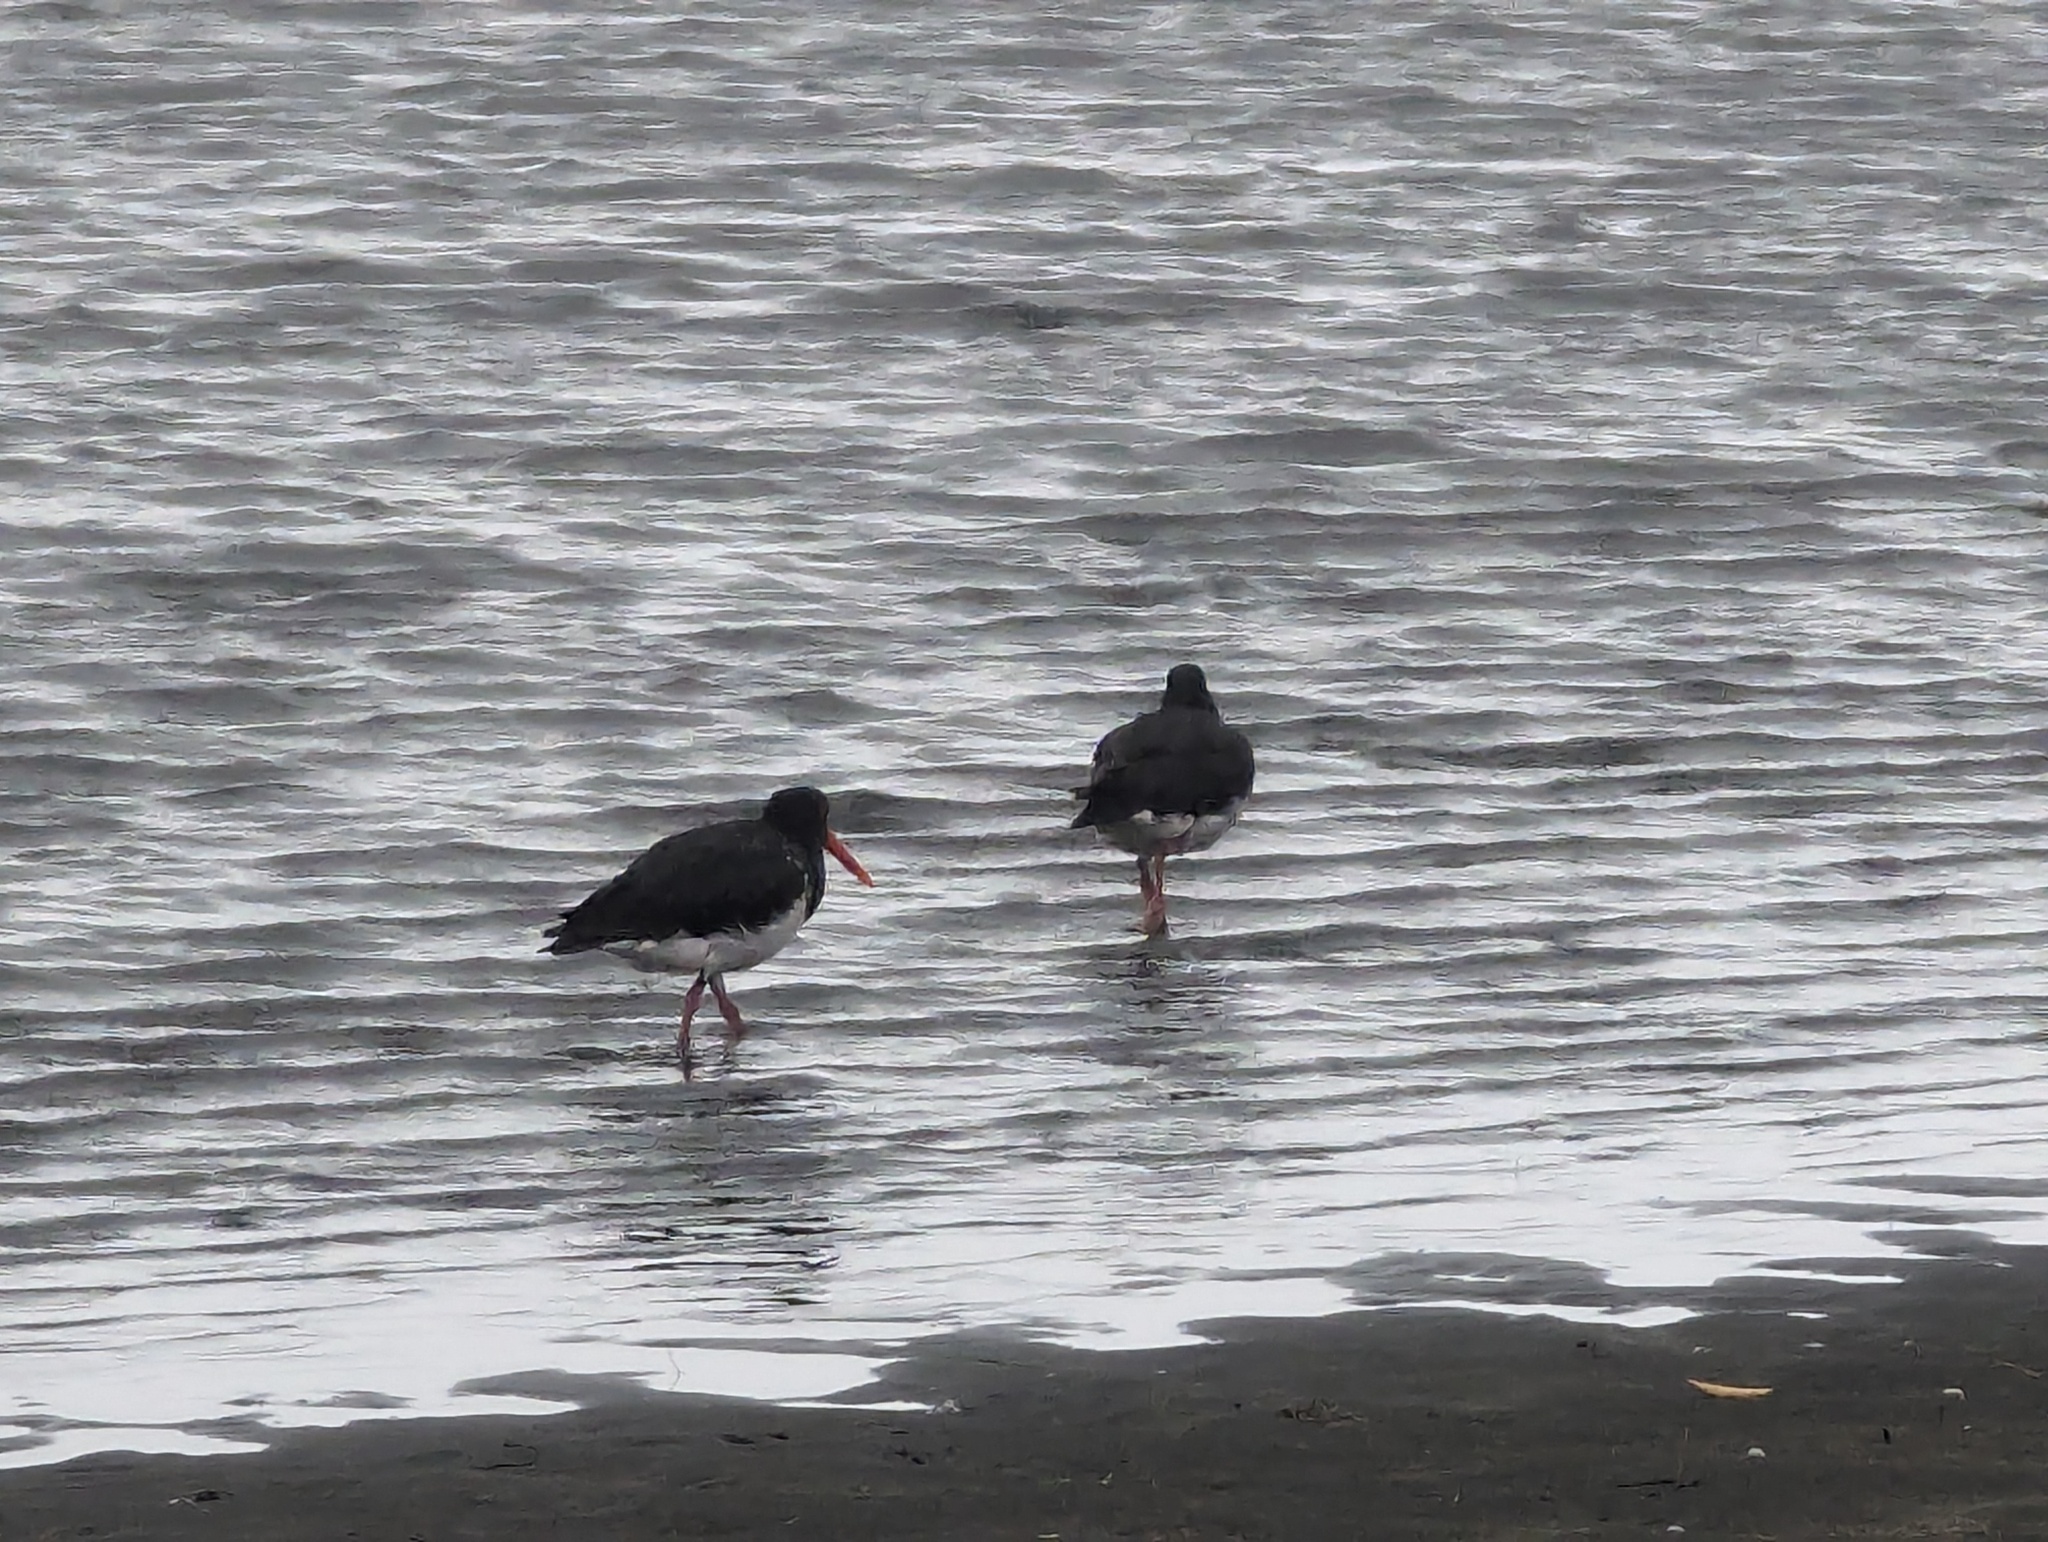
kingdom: Animalia
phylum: Chordata
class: Aves
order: Charadriiformes
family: Haematopodidae
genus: Haematopus
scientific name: Haematopus finschi
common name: South island oystercatcher
